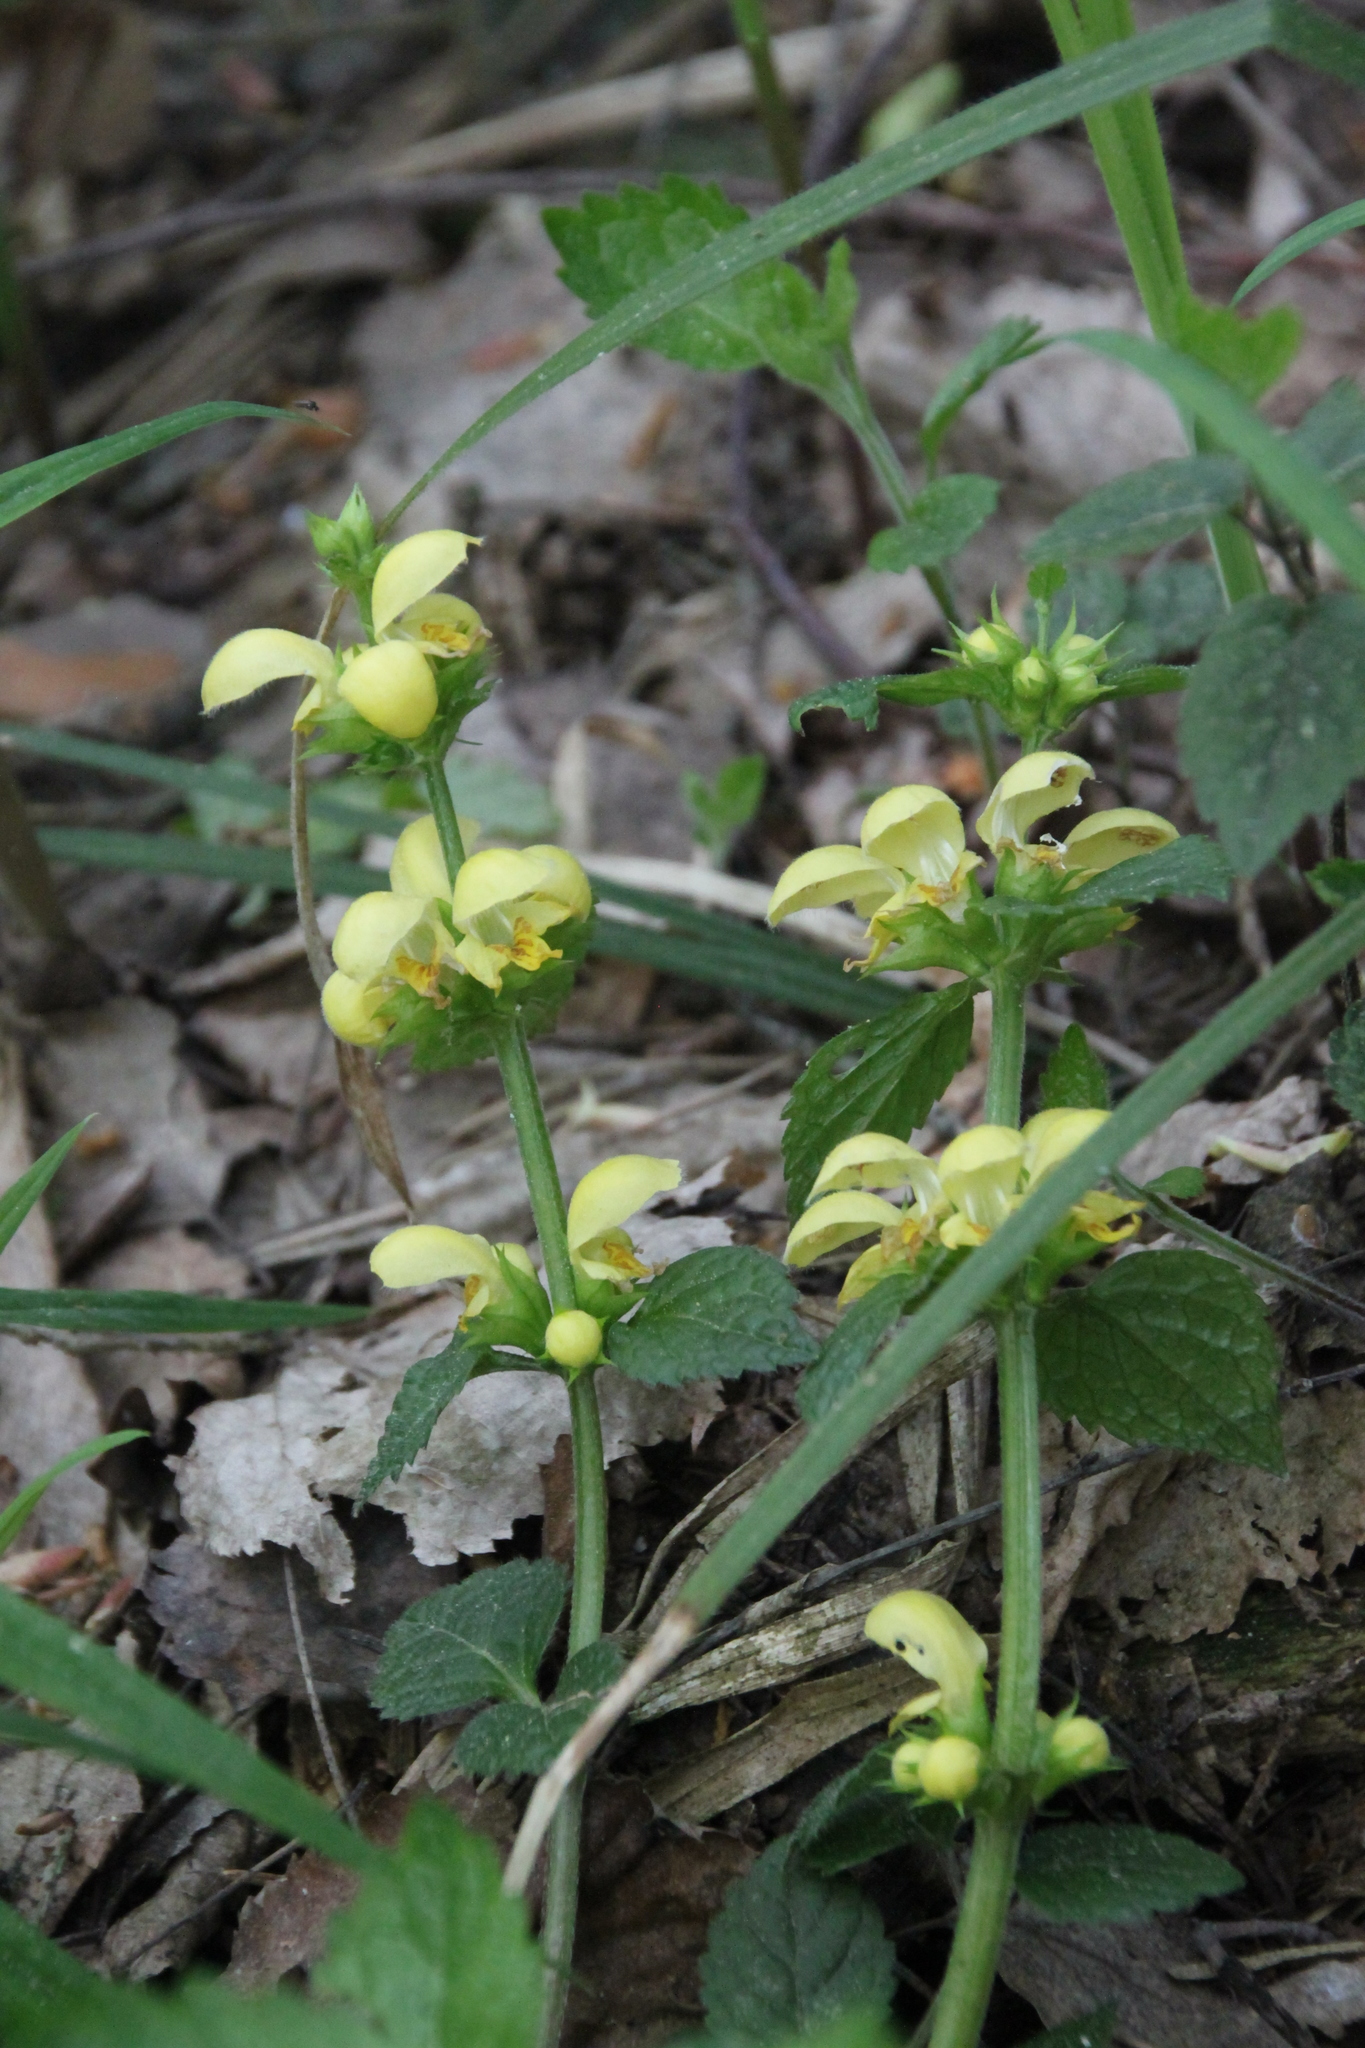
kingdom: Plantae
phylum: Tracheophyta
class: Magnoliopsida
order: Lamiales
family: Lamiaceae
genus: Lamium
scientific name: Lamium galeobdolon
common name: Yellow archangel
